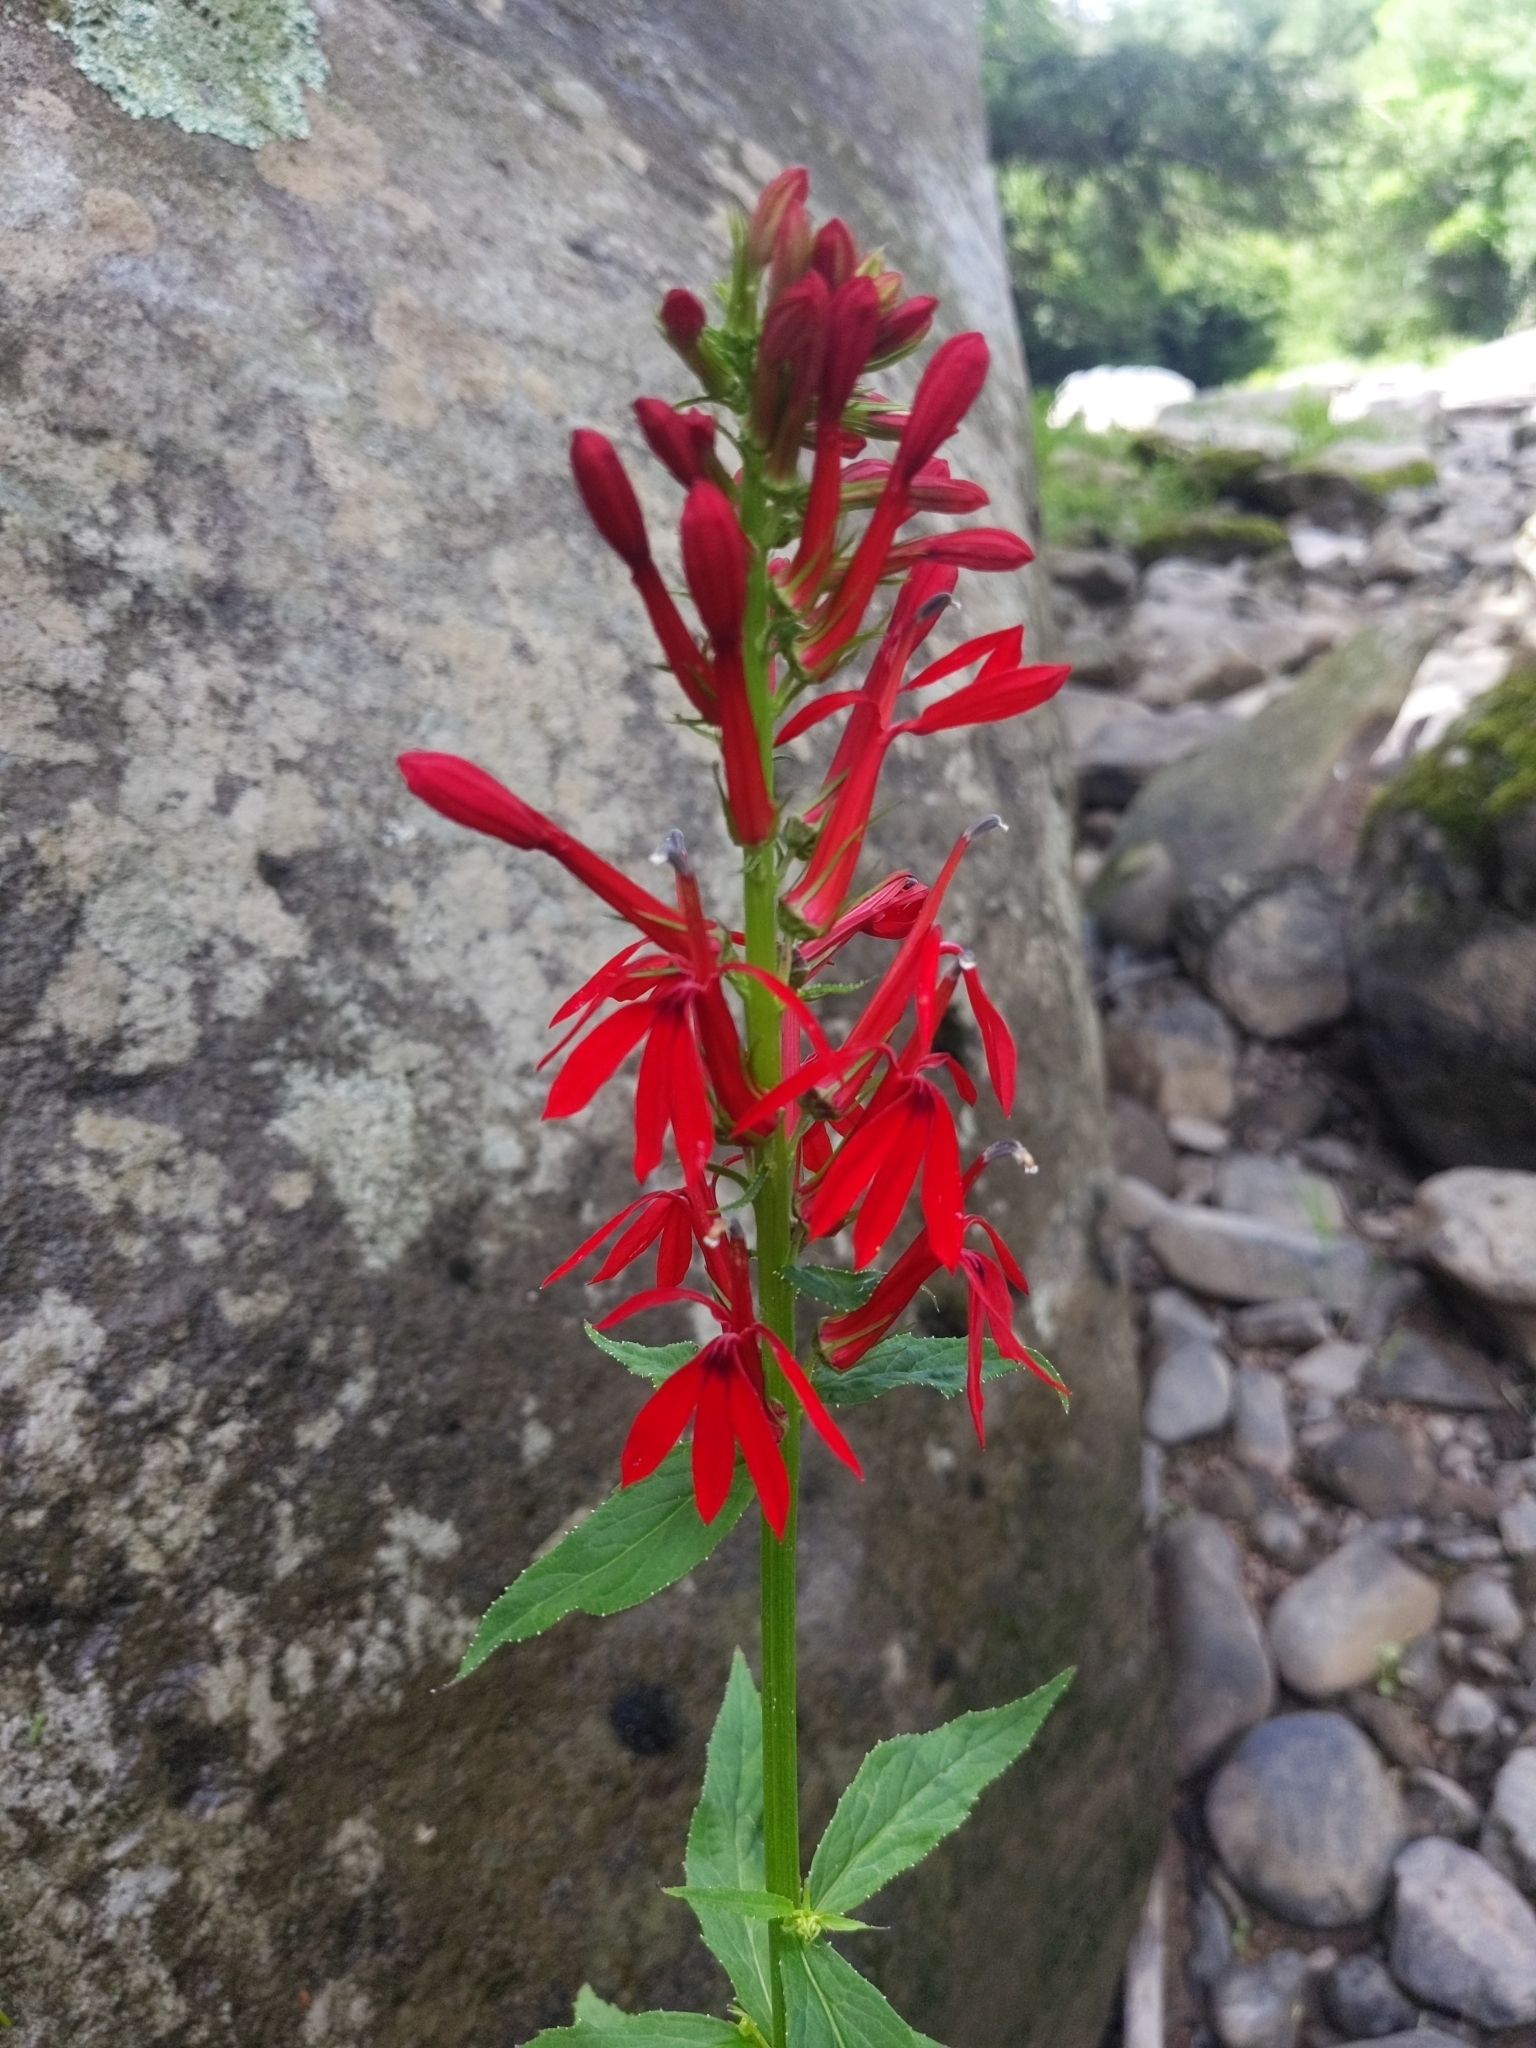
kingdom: Plantae
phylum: Tracheophyta
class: Magnoliopsida
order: Asterales
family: Campanulaceae
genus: Lobelia
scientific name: Lobelia cardinalis
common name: Cardinal flower
